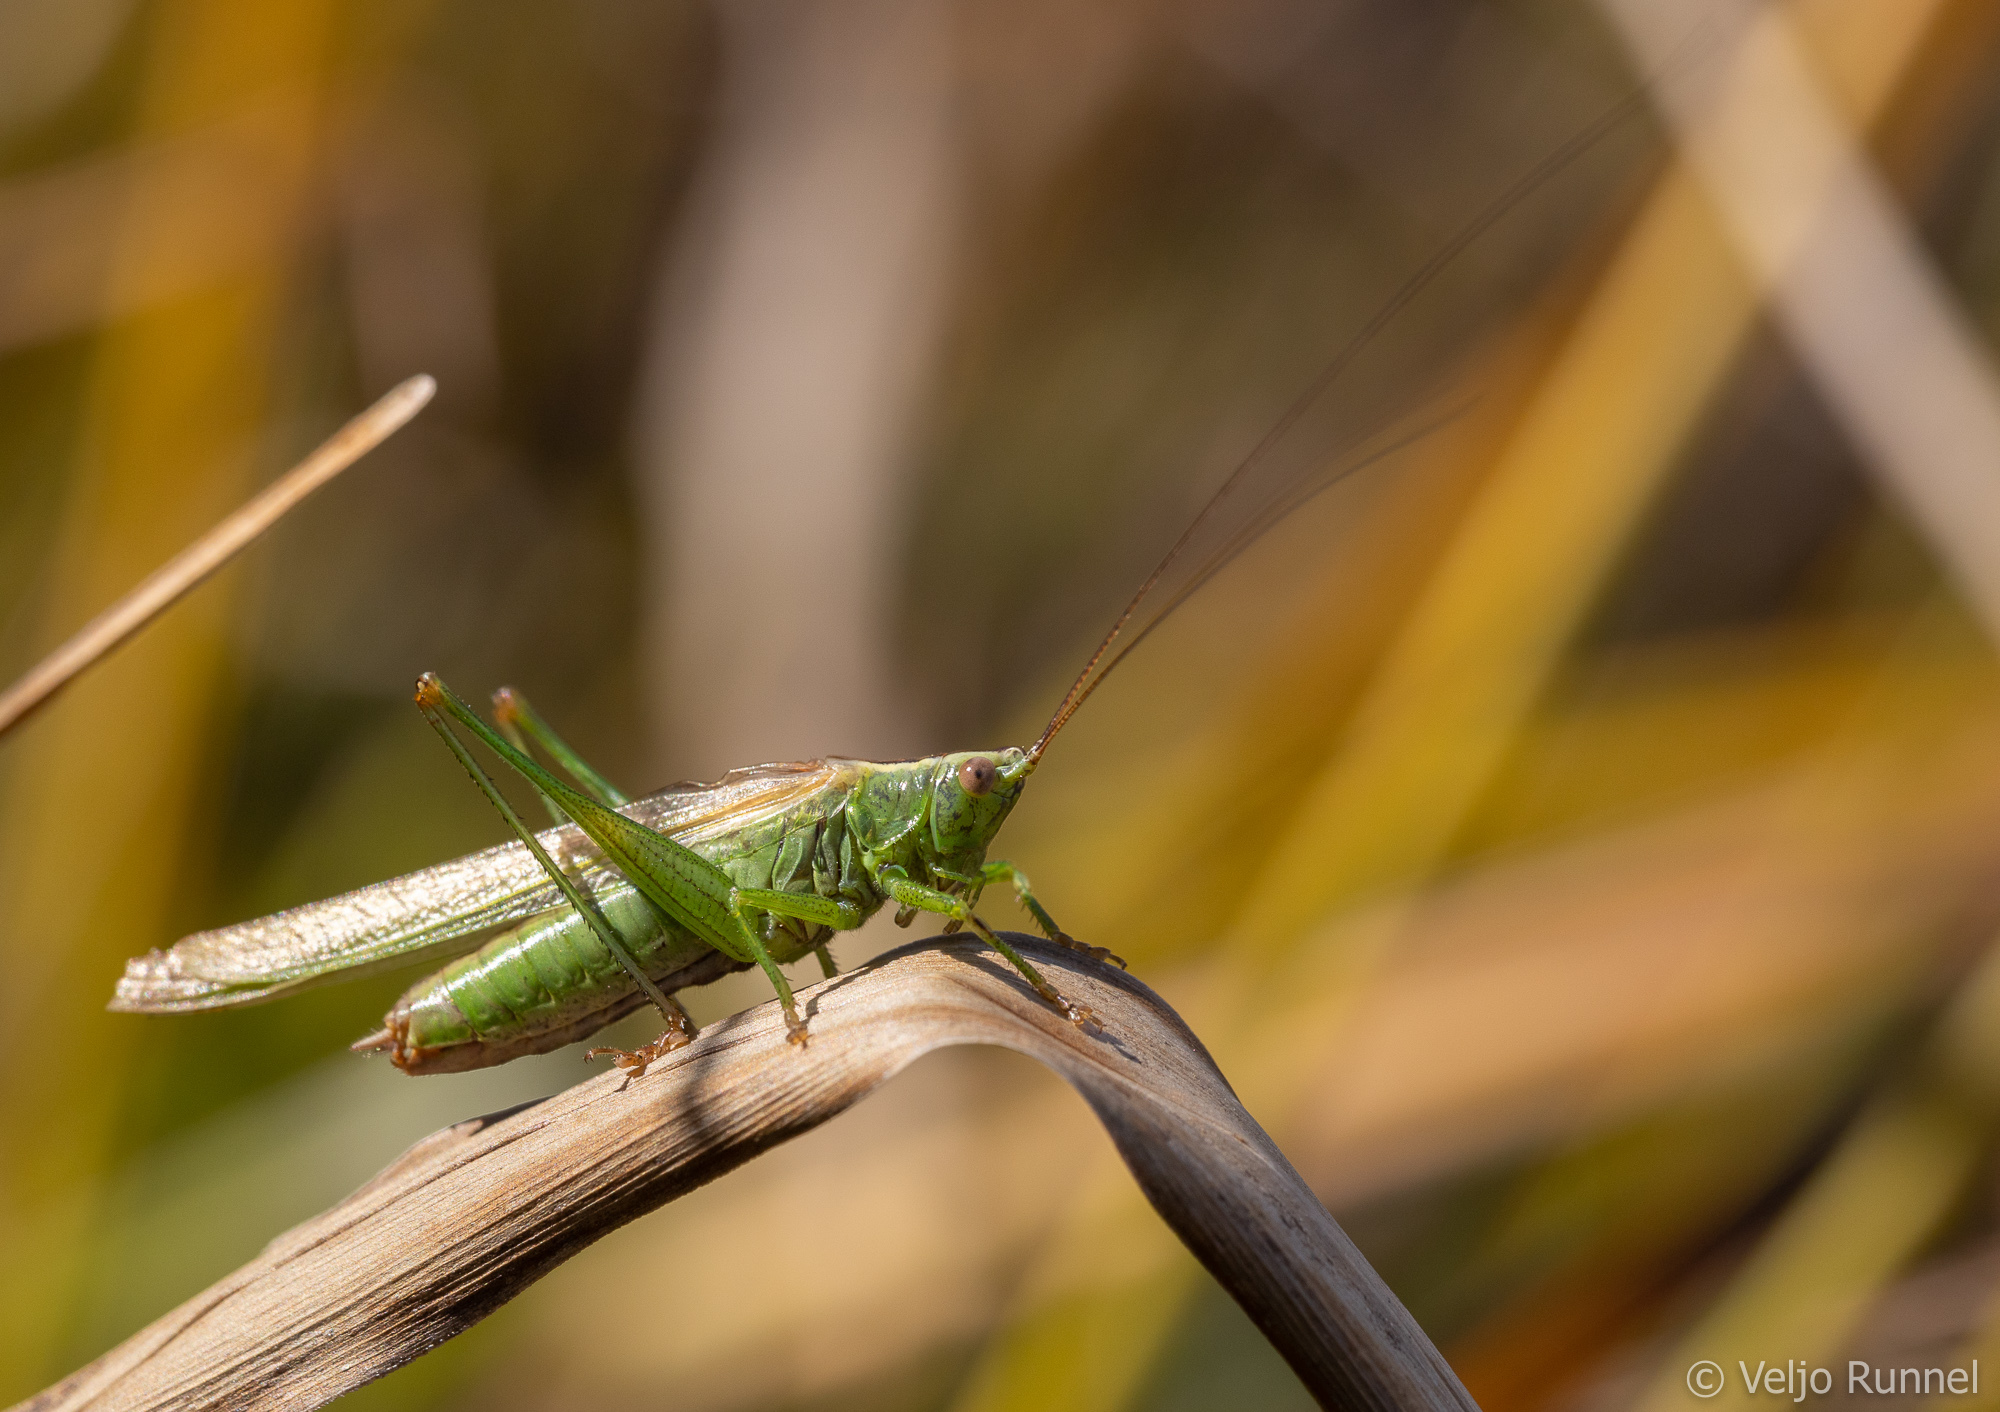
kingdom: Animalia
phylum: Arthropoda
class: Insecta
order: Orthoptera
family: Tettigoniidae
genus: Conocephalus
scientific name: Conocephalus fuscus
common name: Long-winged conehead
